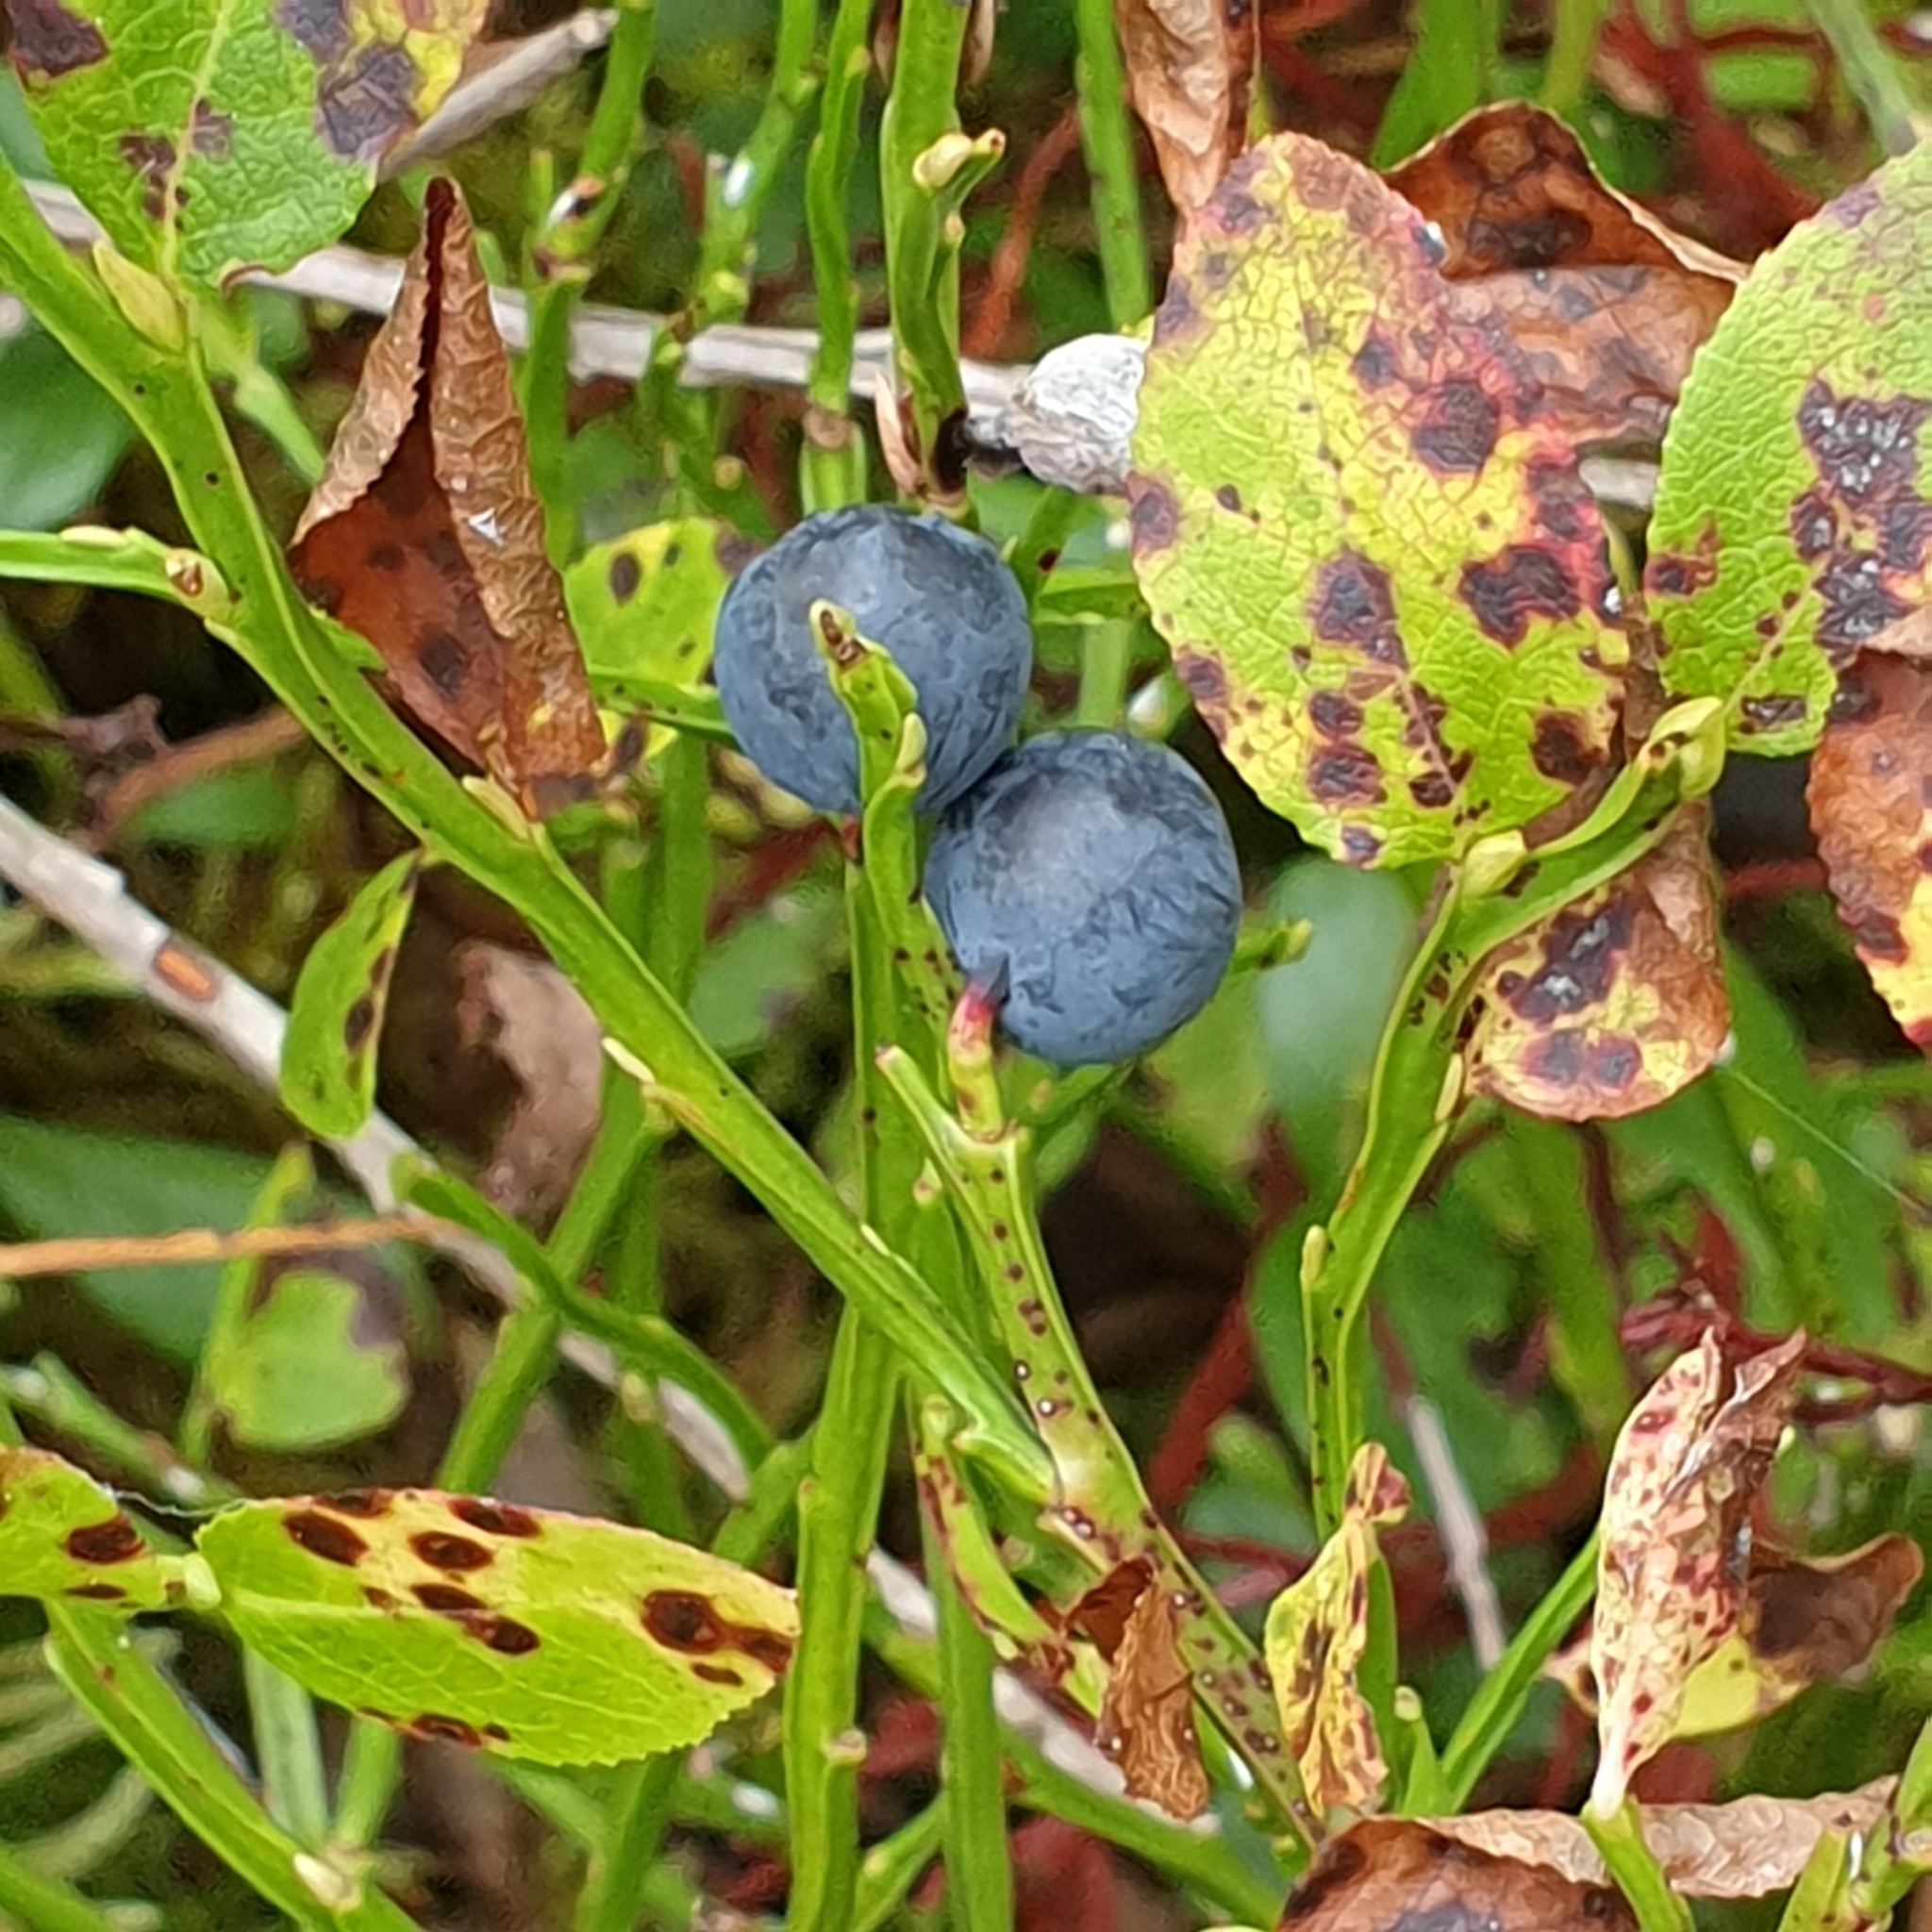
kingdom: Plantae
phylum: Tracheophyta
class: Magnoliopsida
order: Ericales
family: Ericaceae
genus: Vaccinium
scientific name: Vaccinium myrtillus
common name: Bilberry
